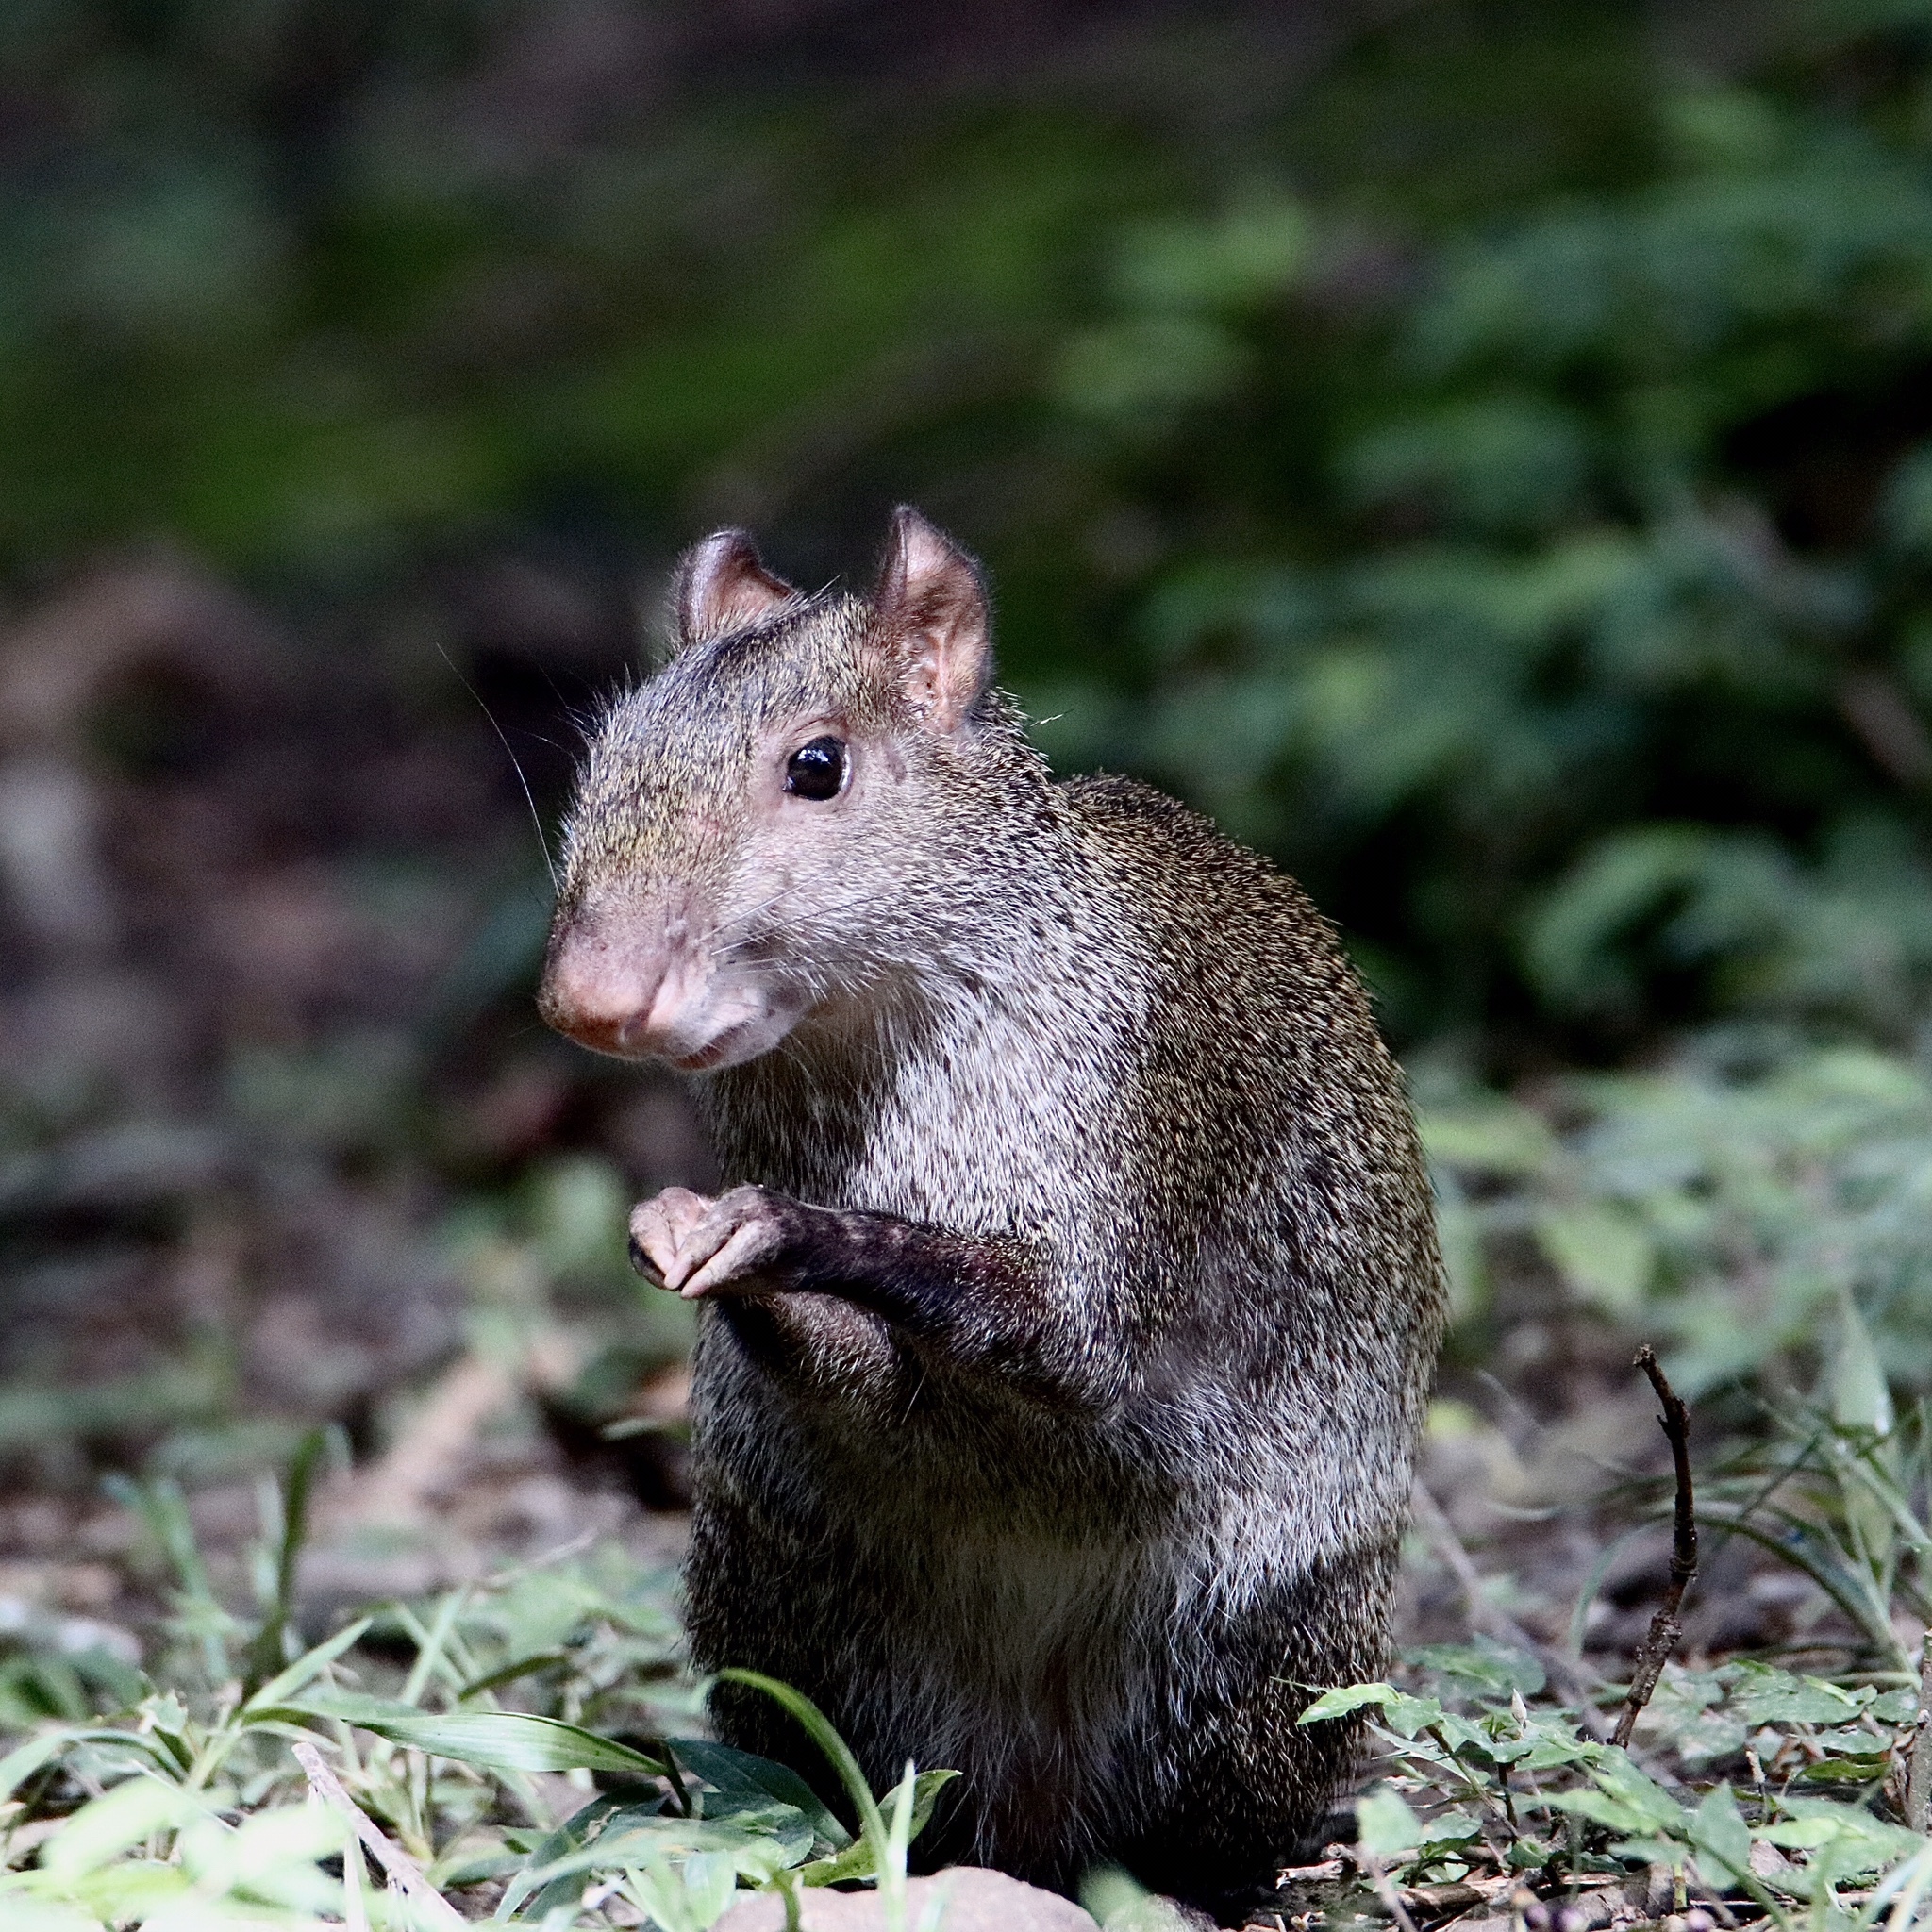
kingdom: Animalia
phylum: Chordata
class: Mammalia
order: Rodentia
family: Dasyproctidae
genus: Dasyprocta
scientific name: Dasyprocta punctata
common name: Central american agouti
